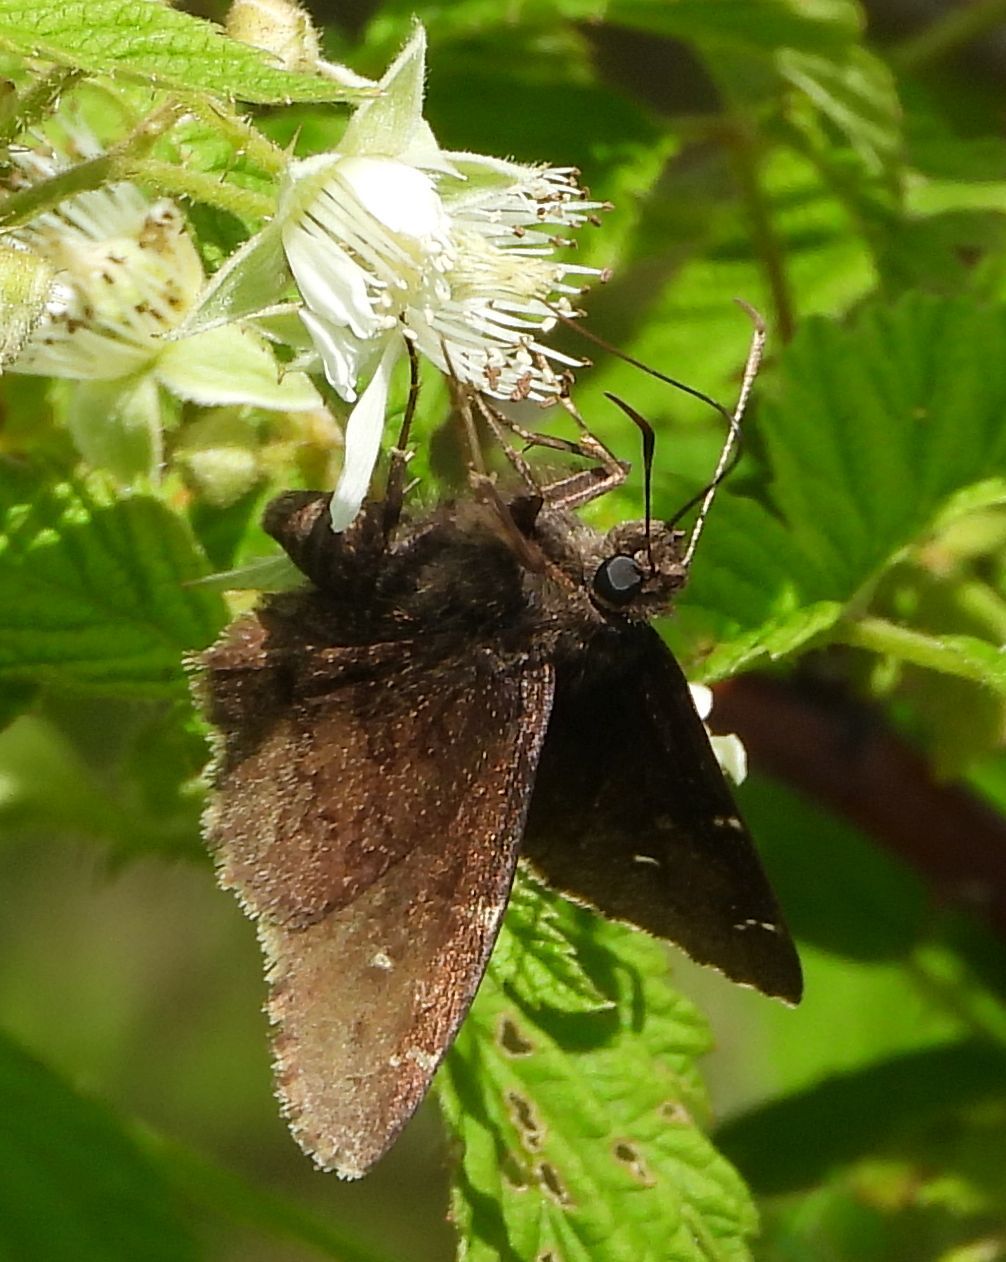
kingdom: Animalia
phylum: Arthropoda
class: Insecta
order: Lepidoptera
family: Hesperiidae
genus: Thorybes
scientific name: Thorybes pylades
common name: Northern cloudywing
